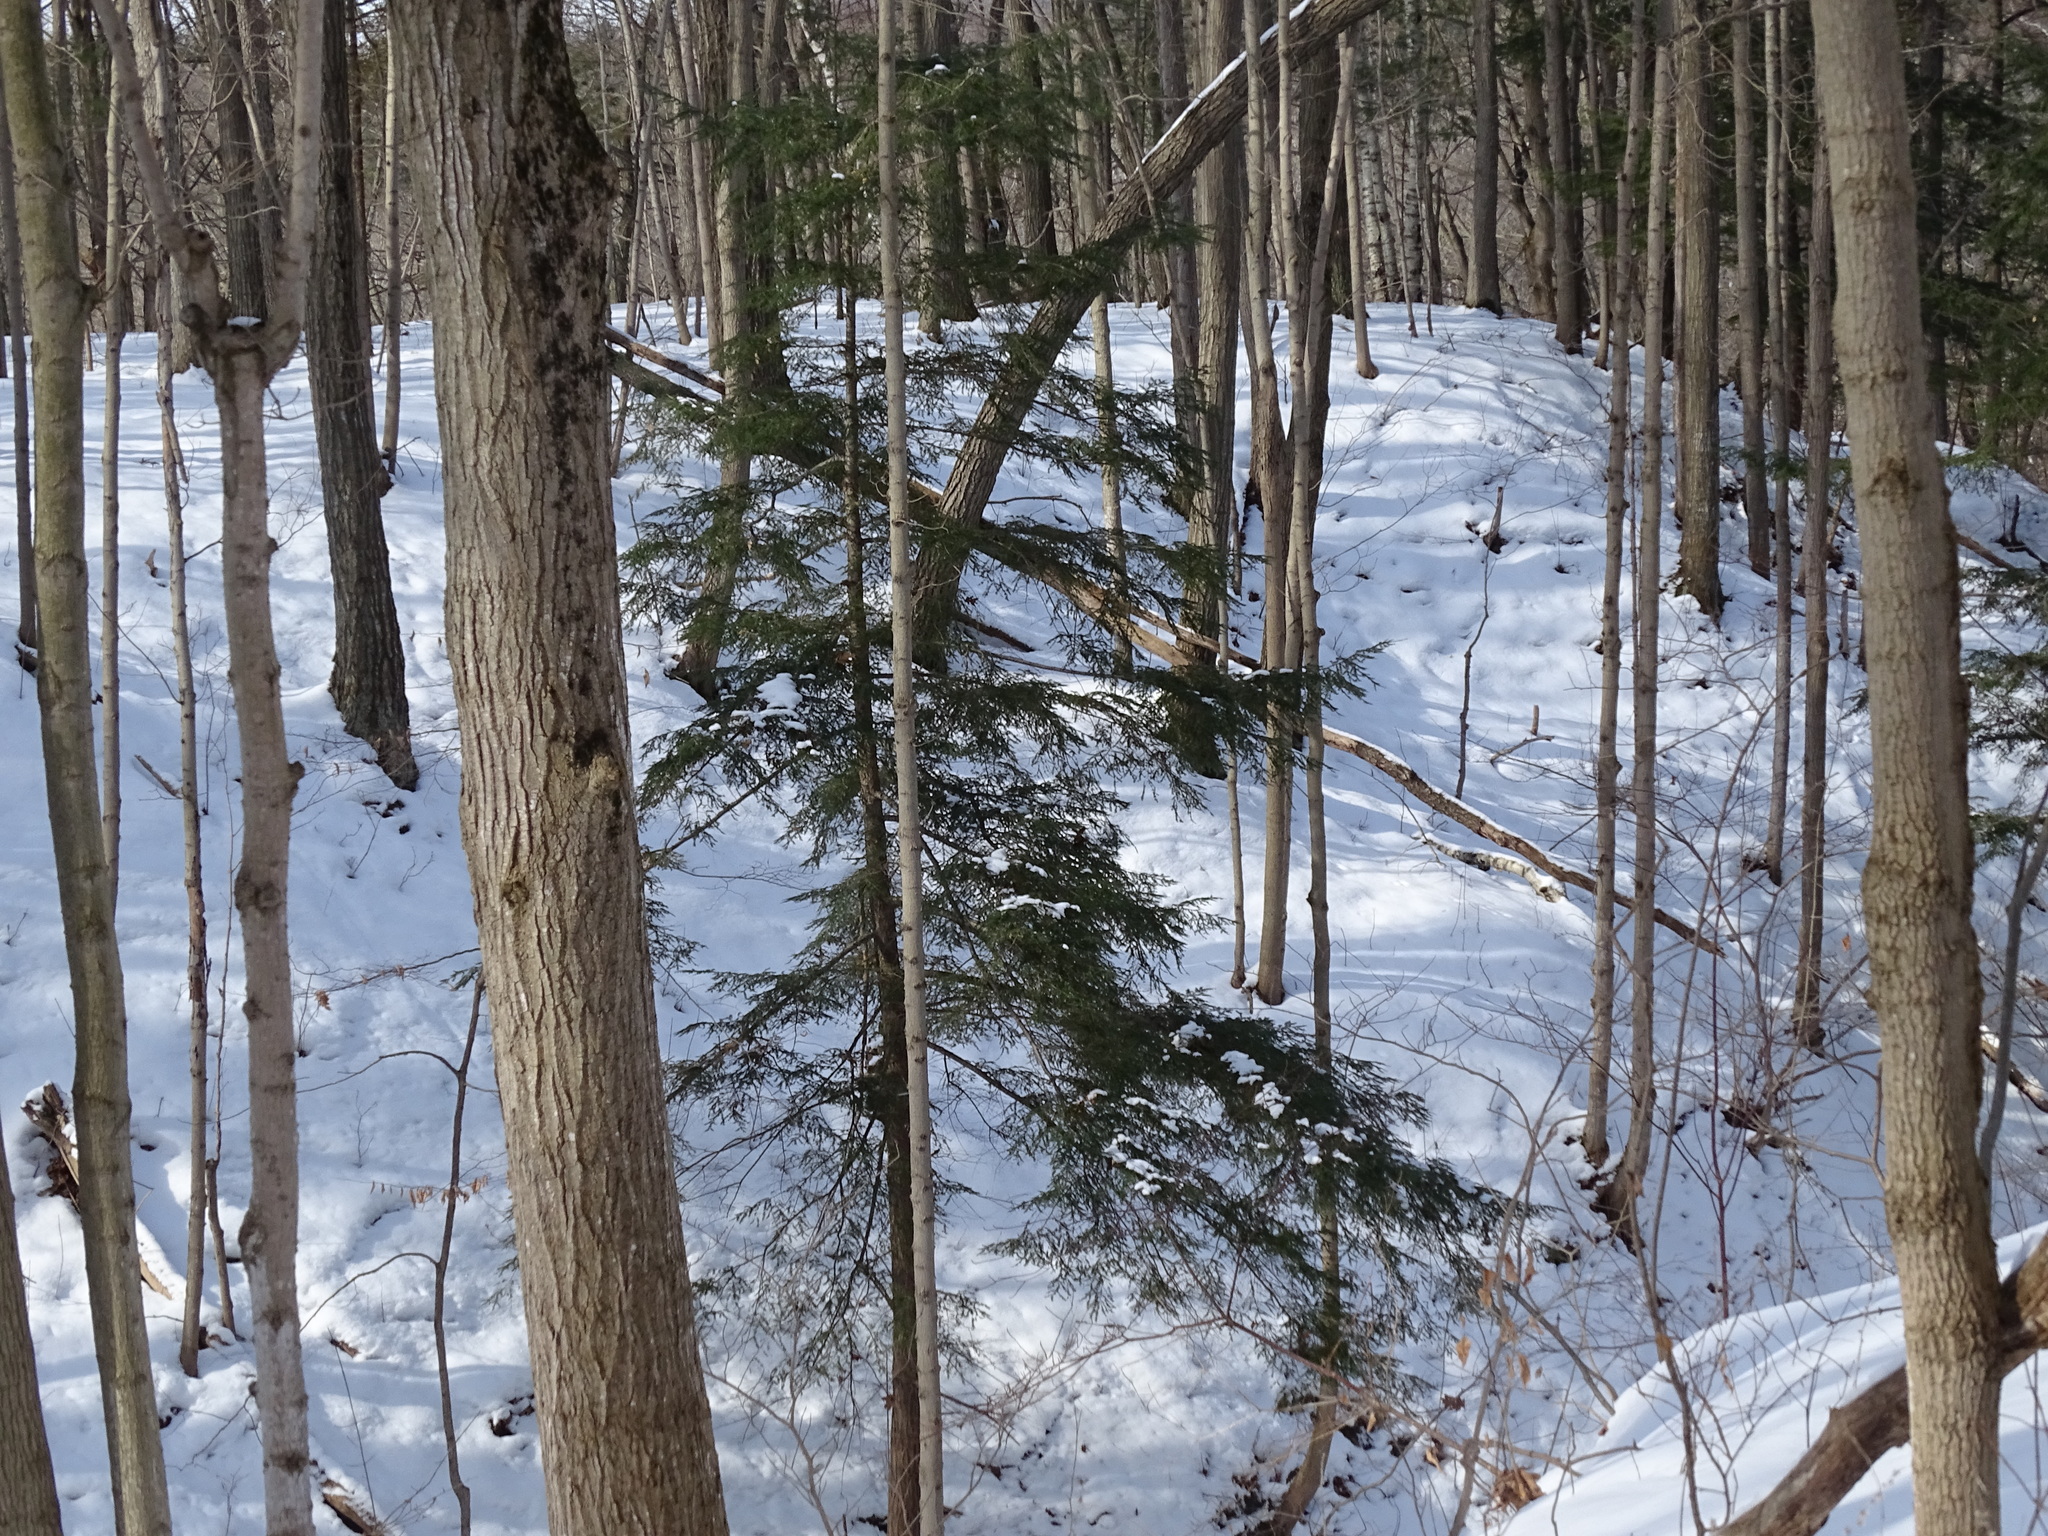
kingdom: Plantae
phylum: Tracheophyta
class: Pinopsida
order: Pinales
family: Pinaceae
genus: Tsuga
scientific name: Tsuga canadensis
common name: Eastern hemlock
